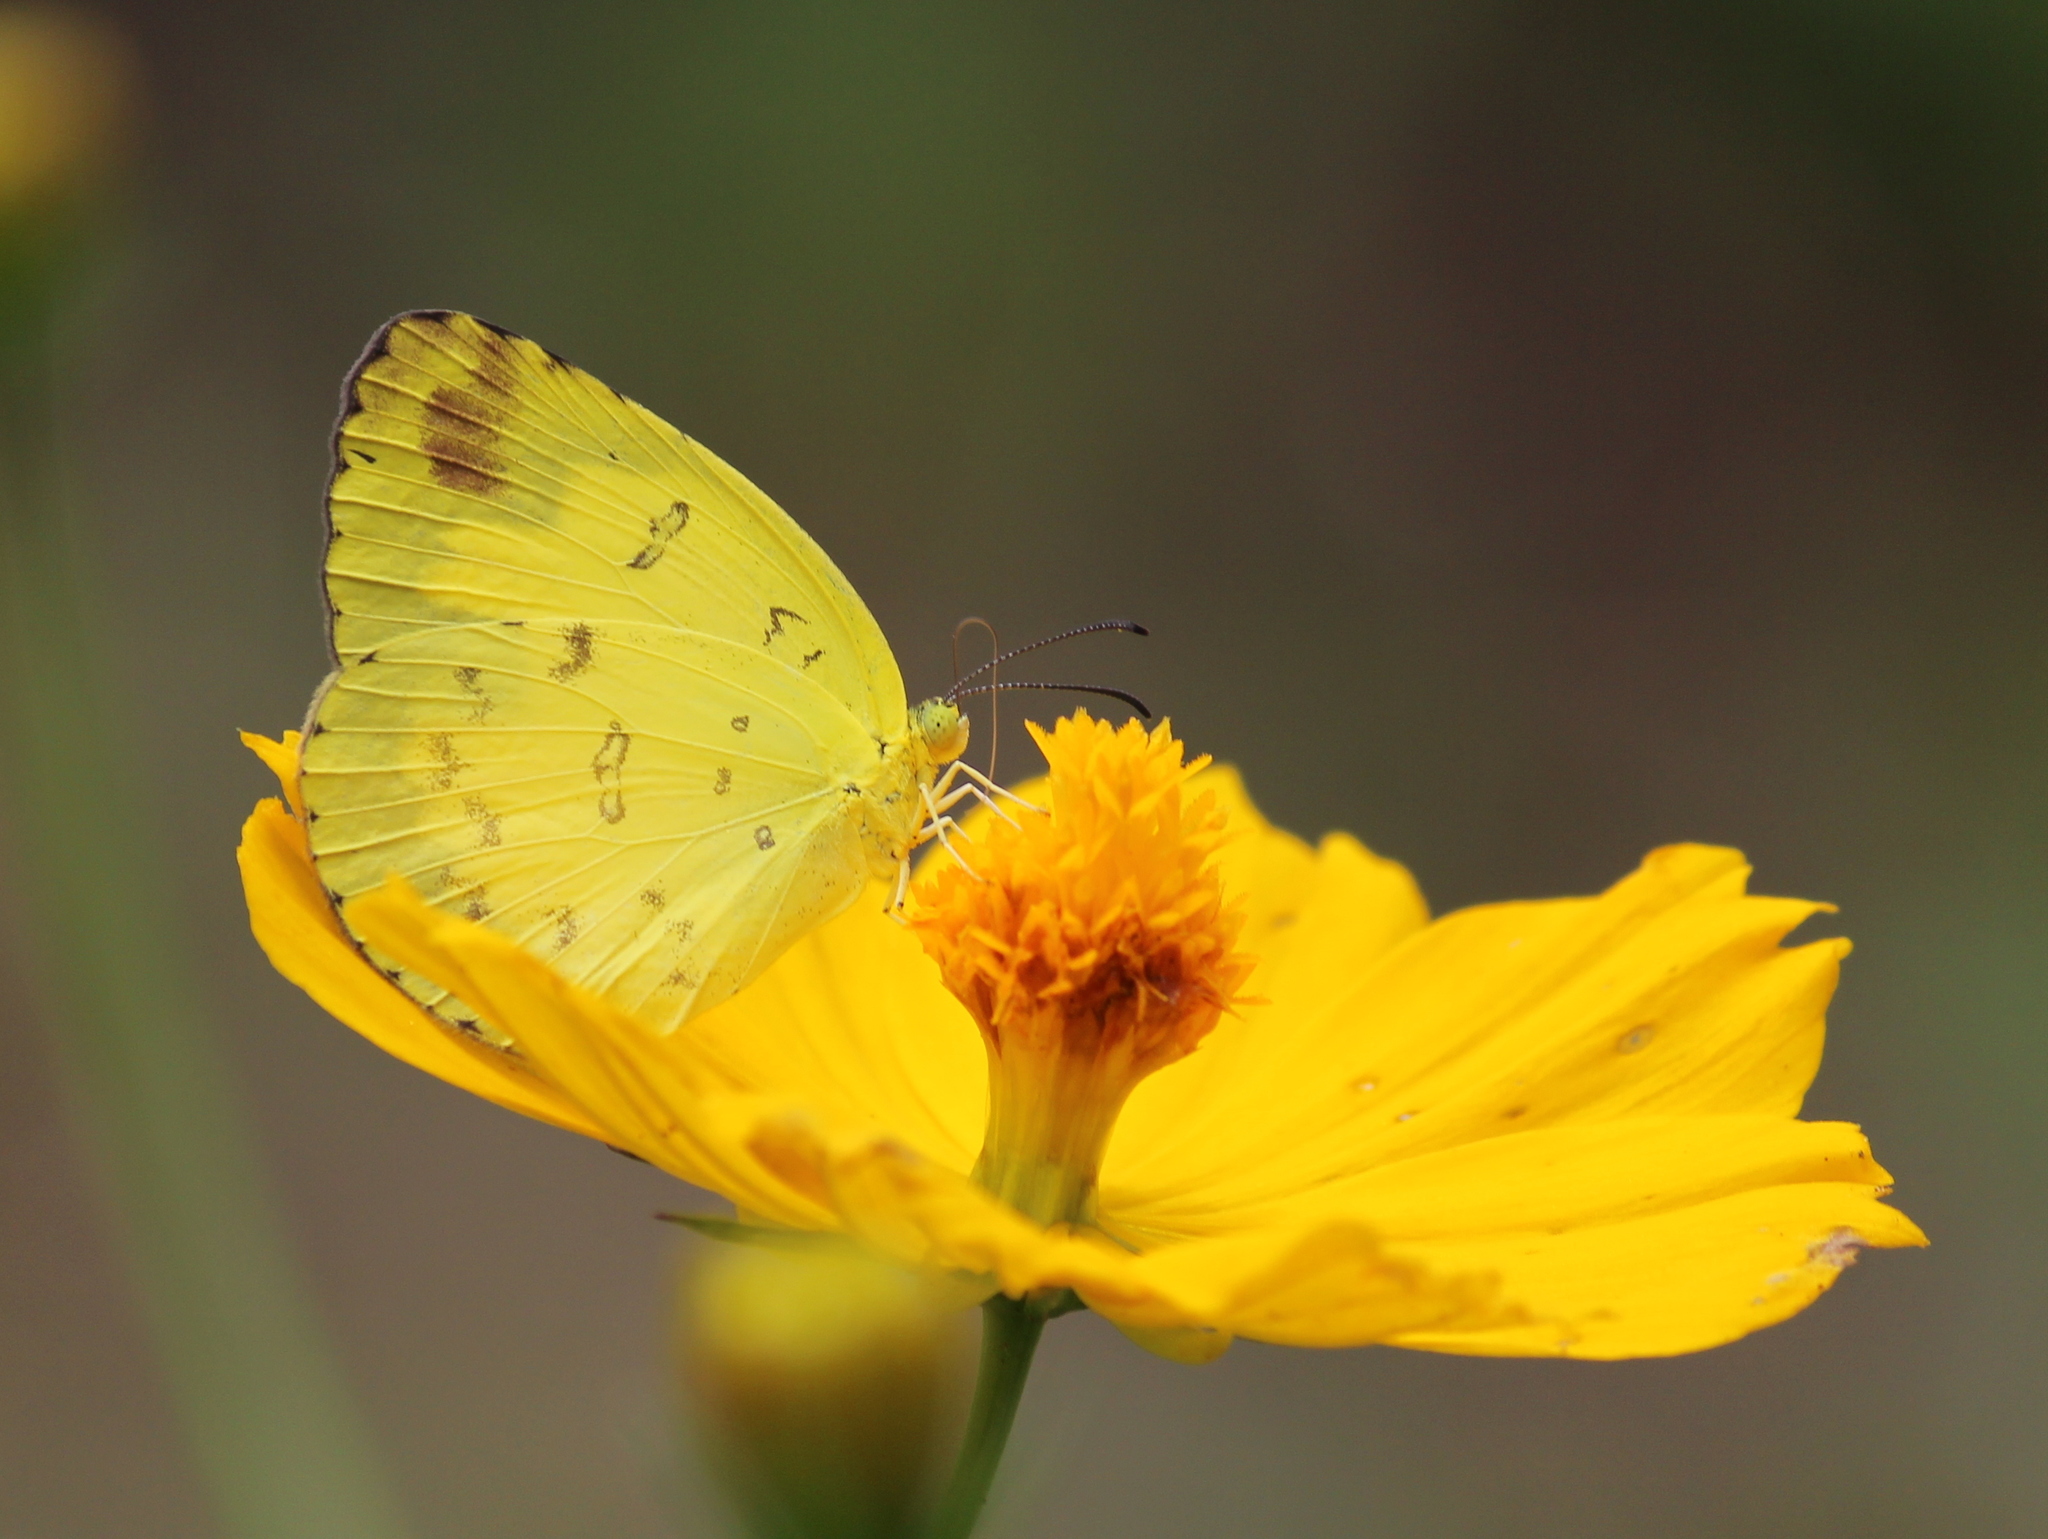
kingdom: Animalia
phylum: Arthropoda
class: Insecta
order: Lepidoptera
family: Pieridae
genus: Eurema
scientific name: Eurema hecabe
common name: Pale grass yellow
